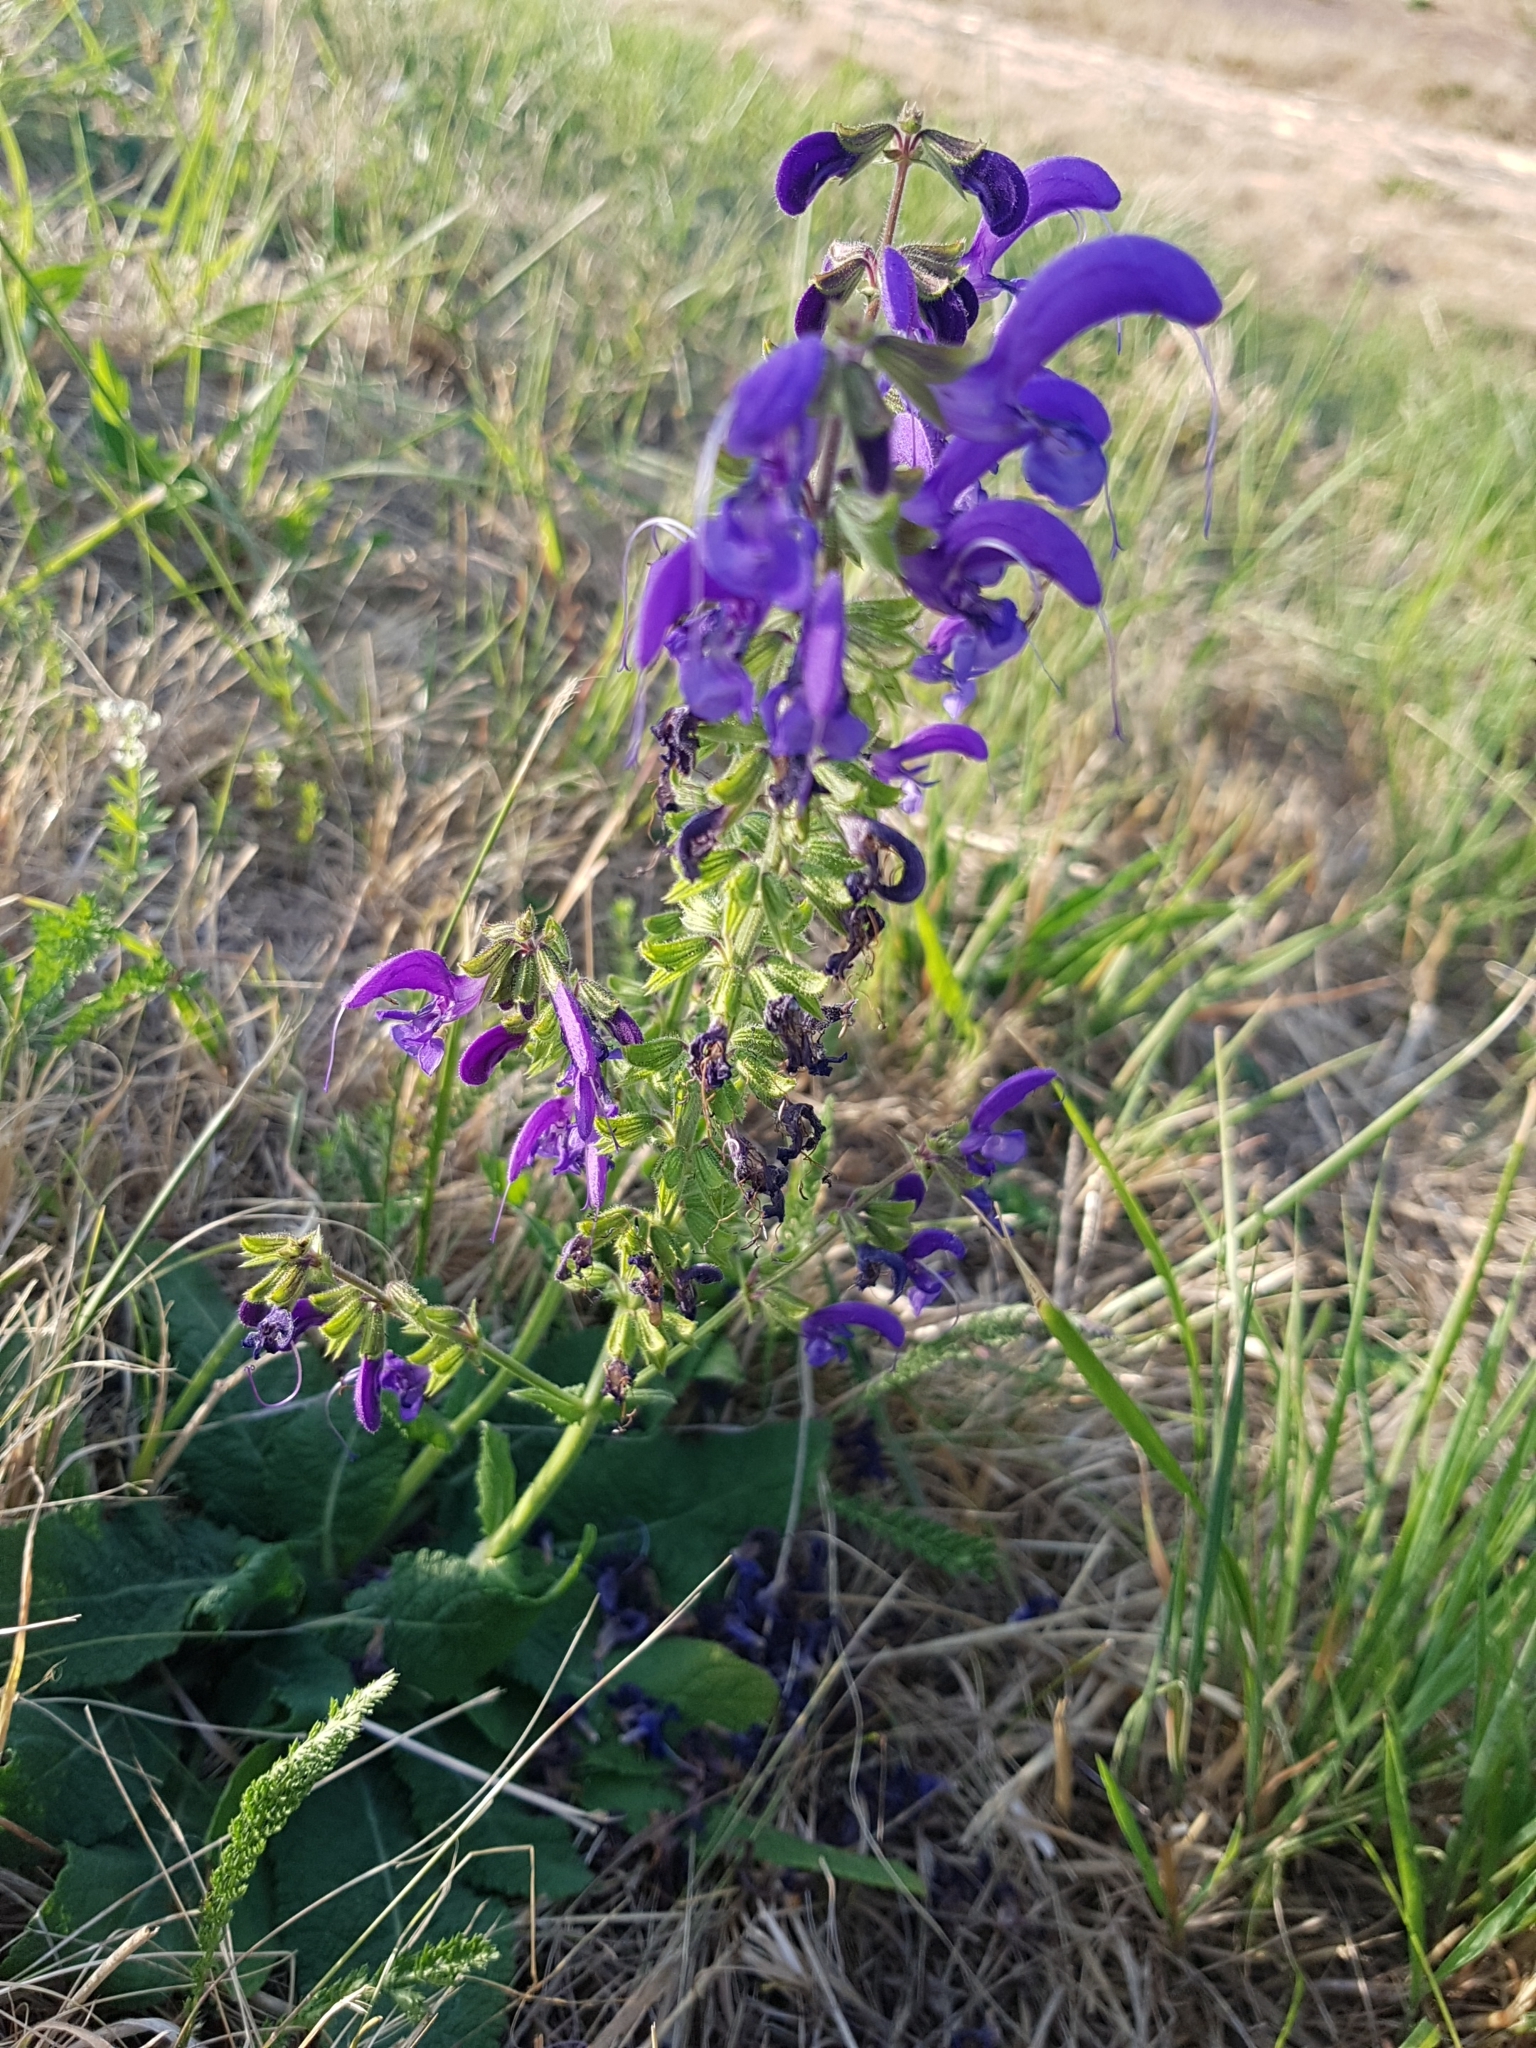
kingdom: Plantae
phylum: Tracheophyta
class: Magnoliopsida
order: Lamiales
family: Lamiaceae
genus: Salvia
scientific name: Salvia pratensis
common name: Meadow sage
